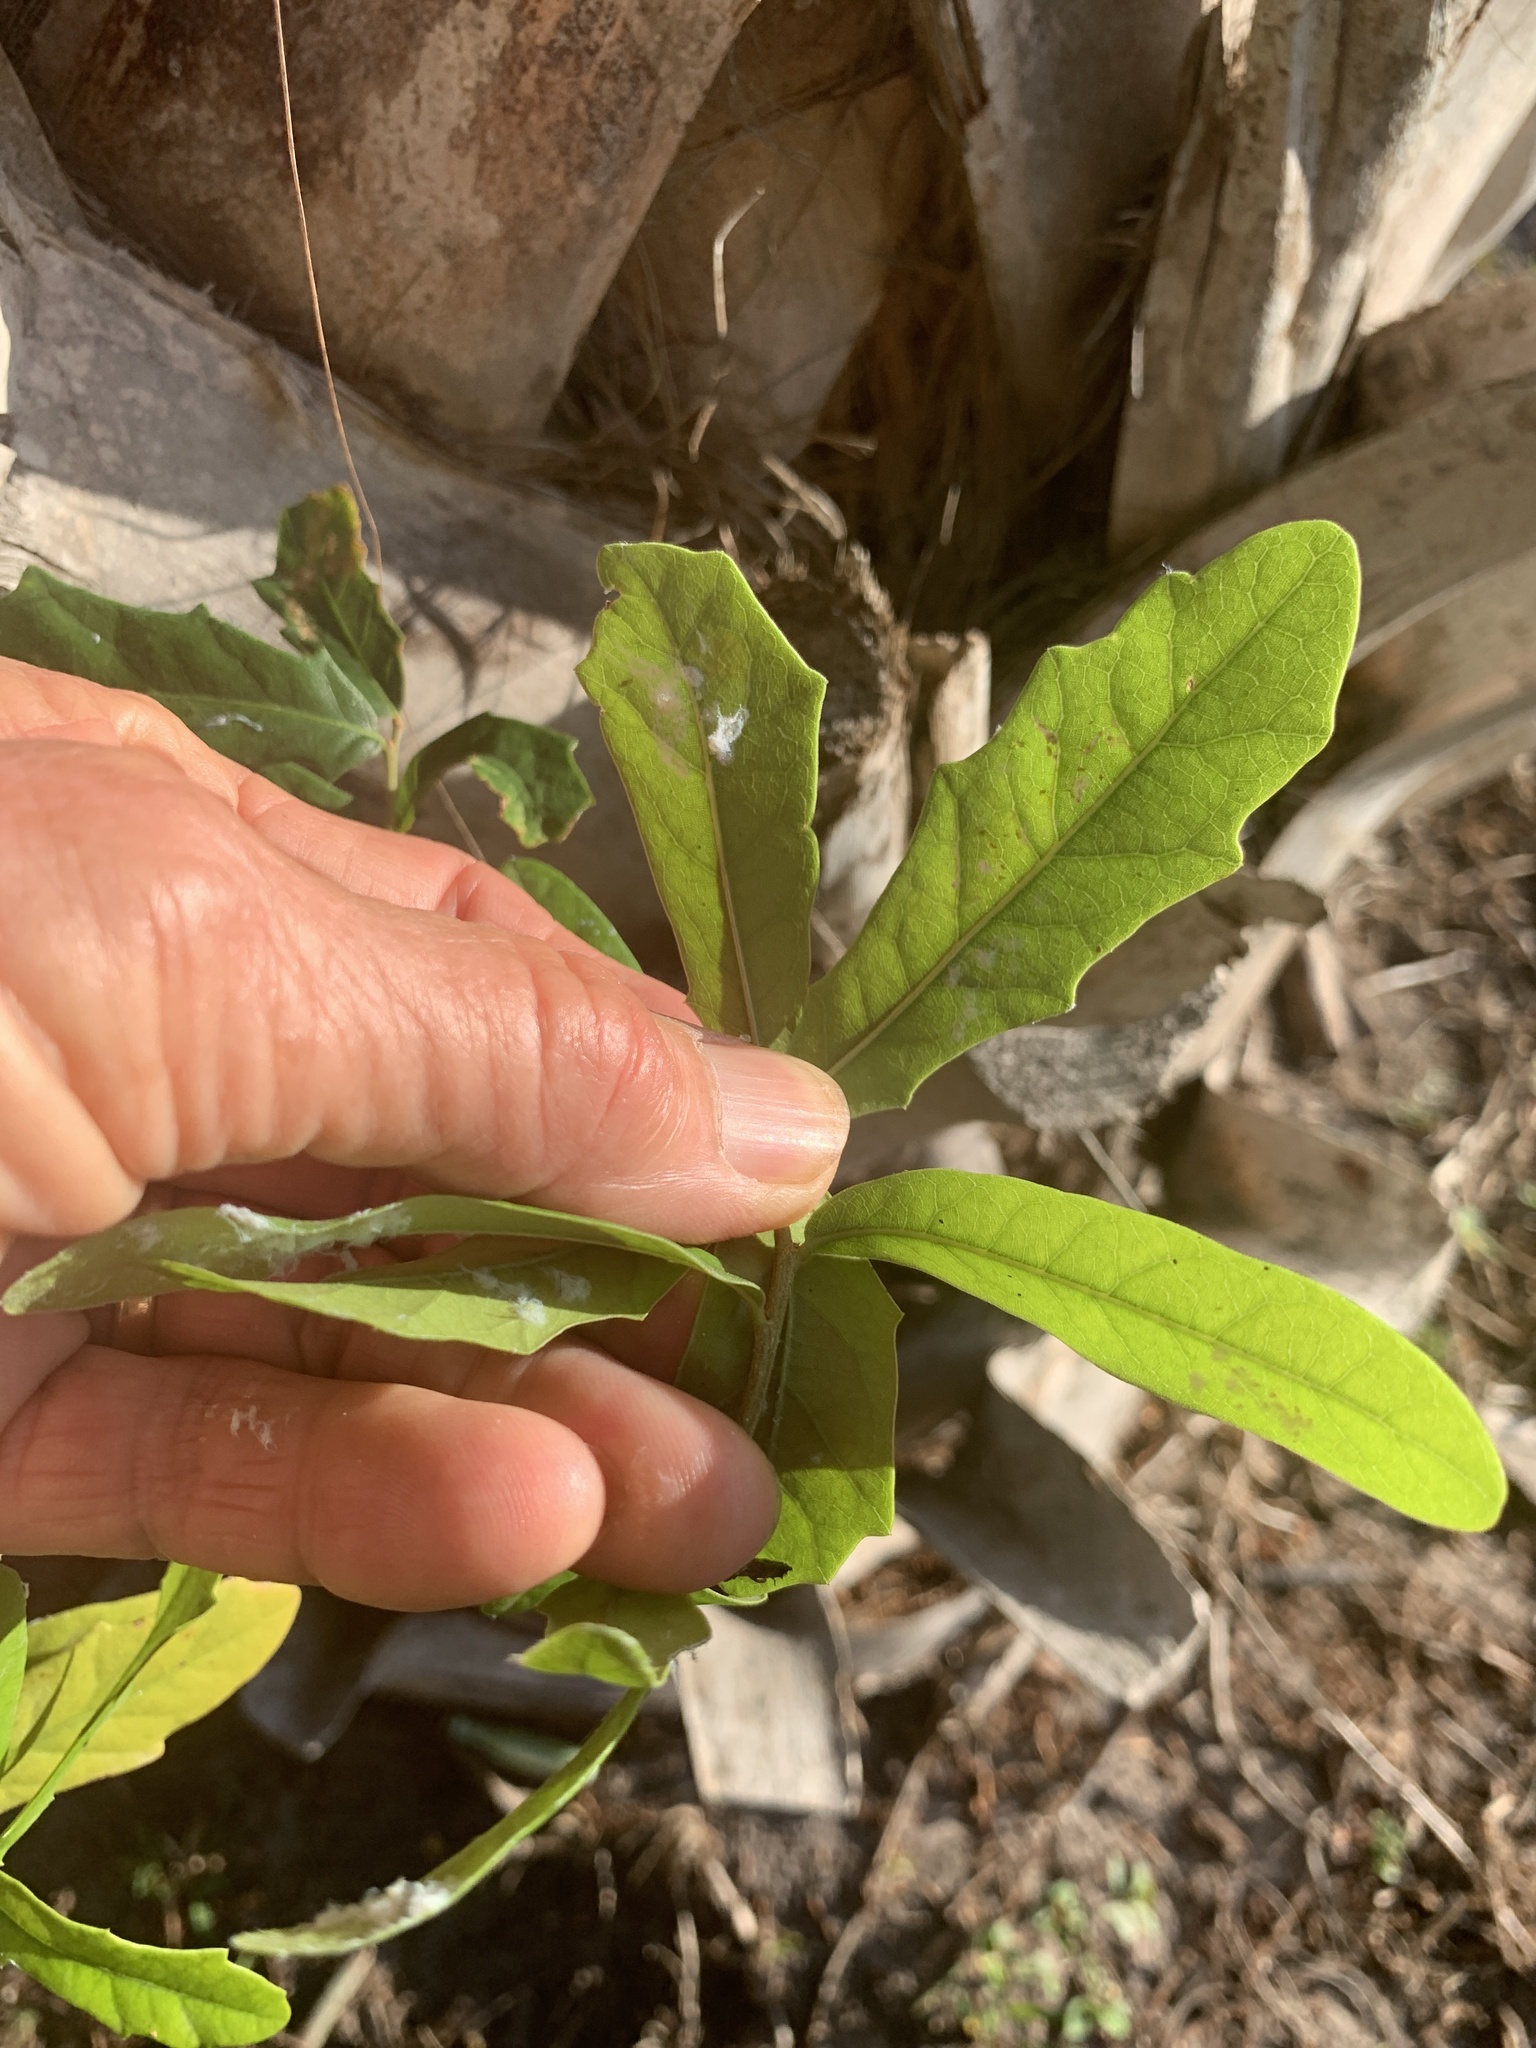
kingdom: Plantae
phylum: Tracheophyta
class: Magnoliopsida
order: Fagales
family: Fagaceae
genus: Quercus
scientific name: Quercus virginiana
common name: Southern live oak
